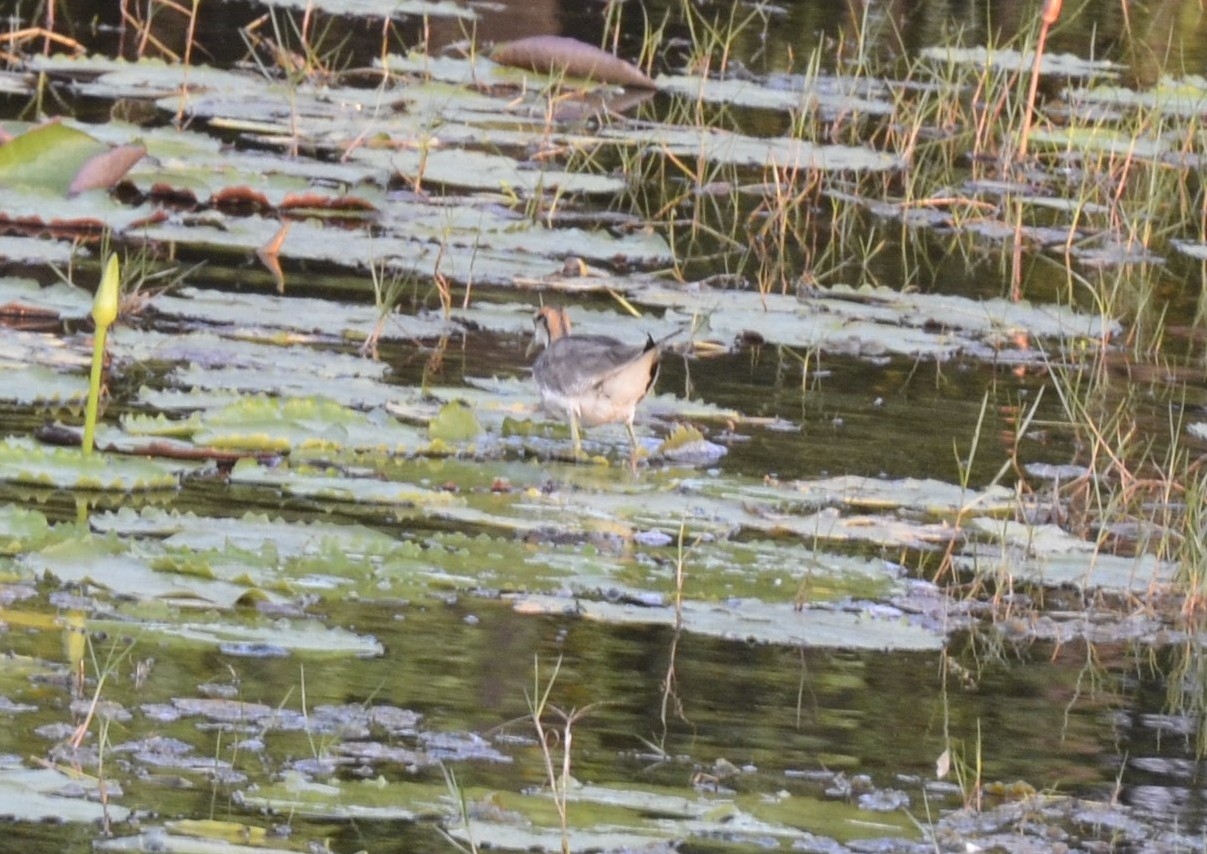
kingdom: Animalia
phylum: Chordata
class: Aves
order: Charadriiformes
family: Jacanidae
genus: Hydrophasianus
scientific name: Hydrophasianus chirurgus
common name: Pheasant-tailed jacana
